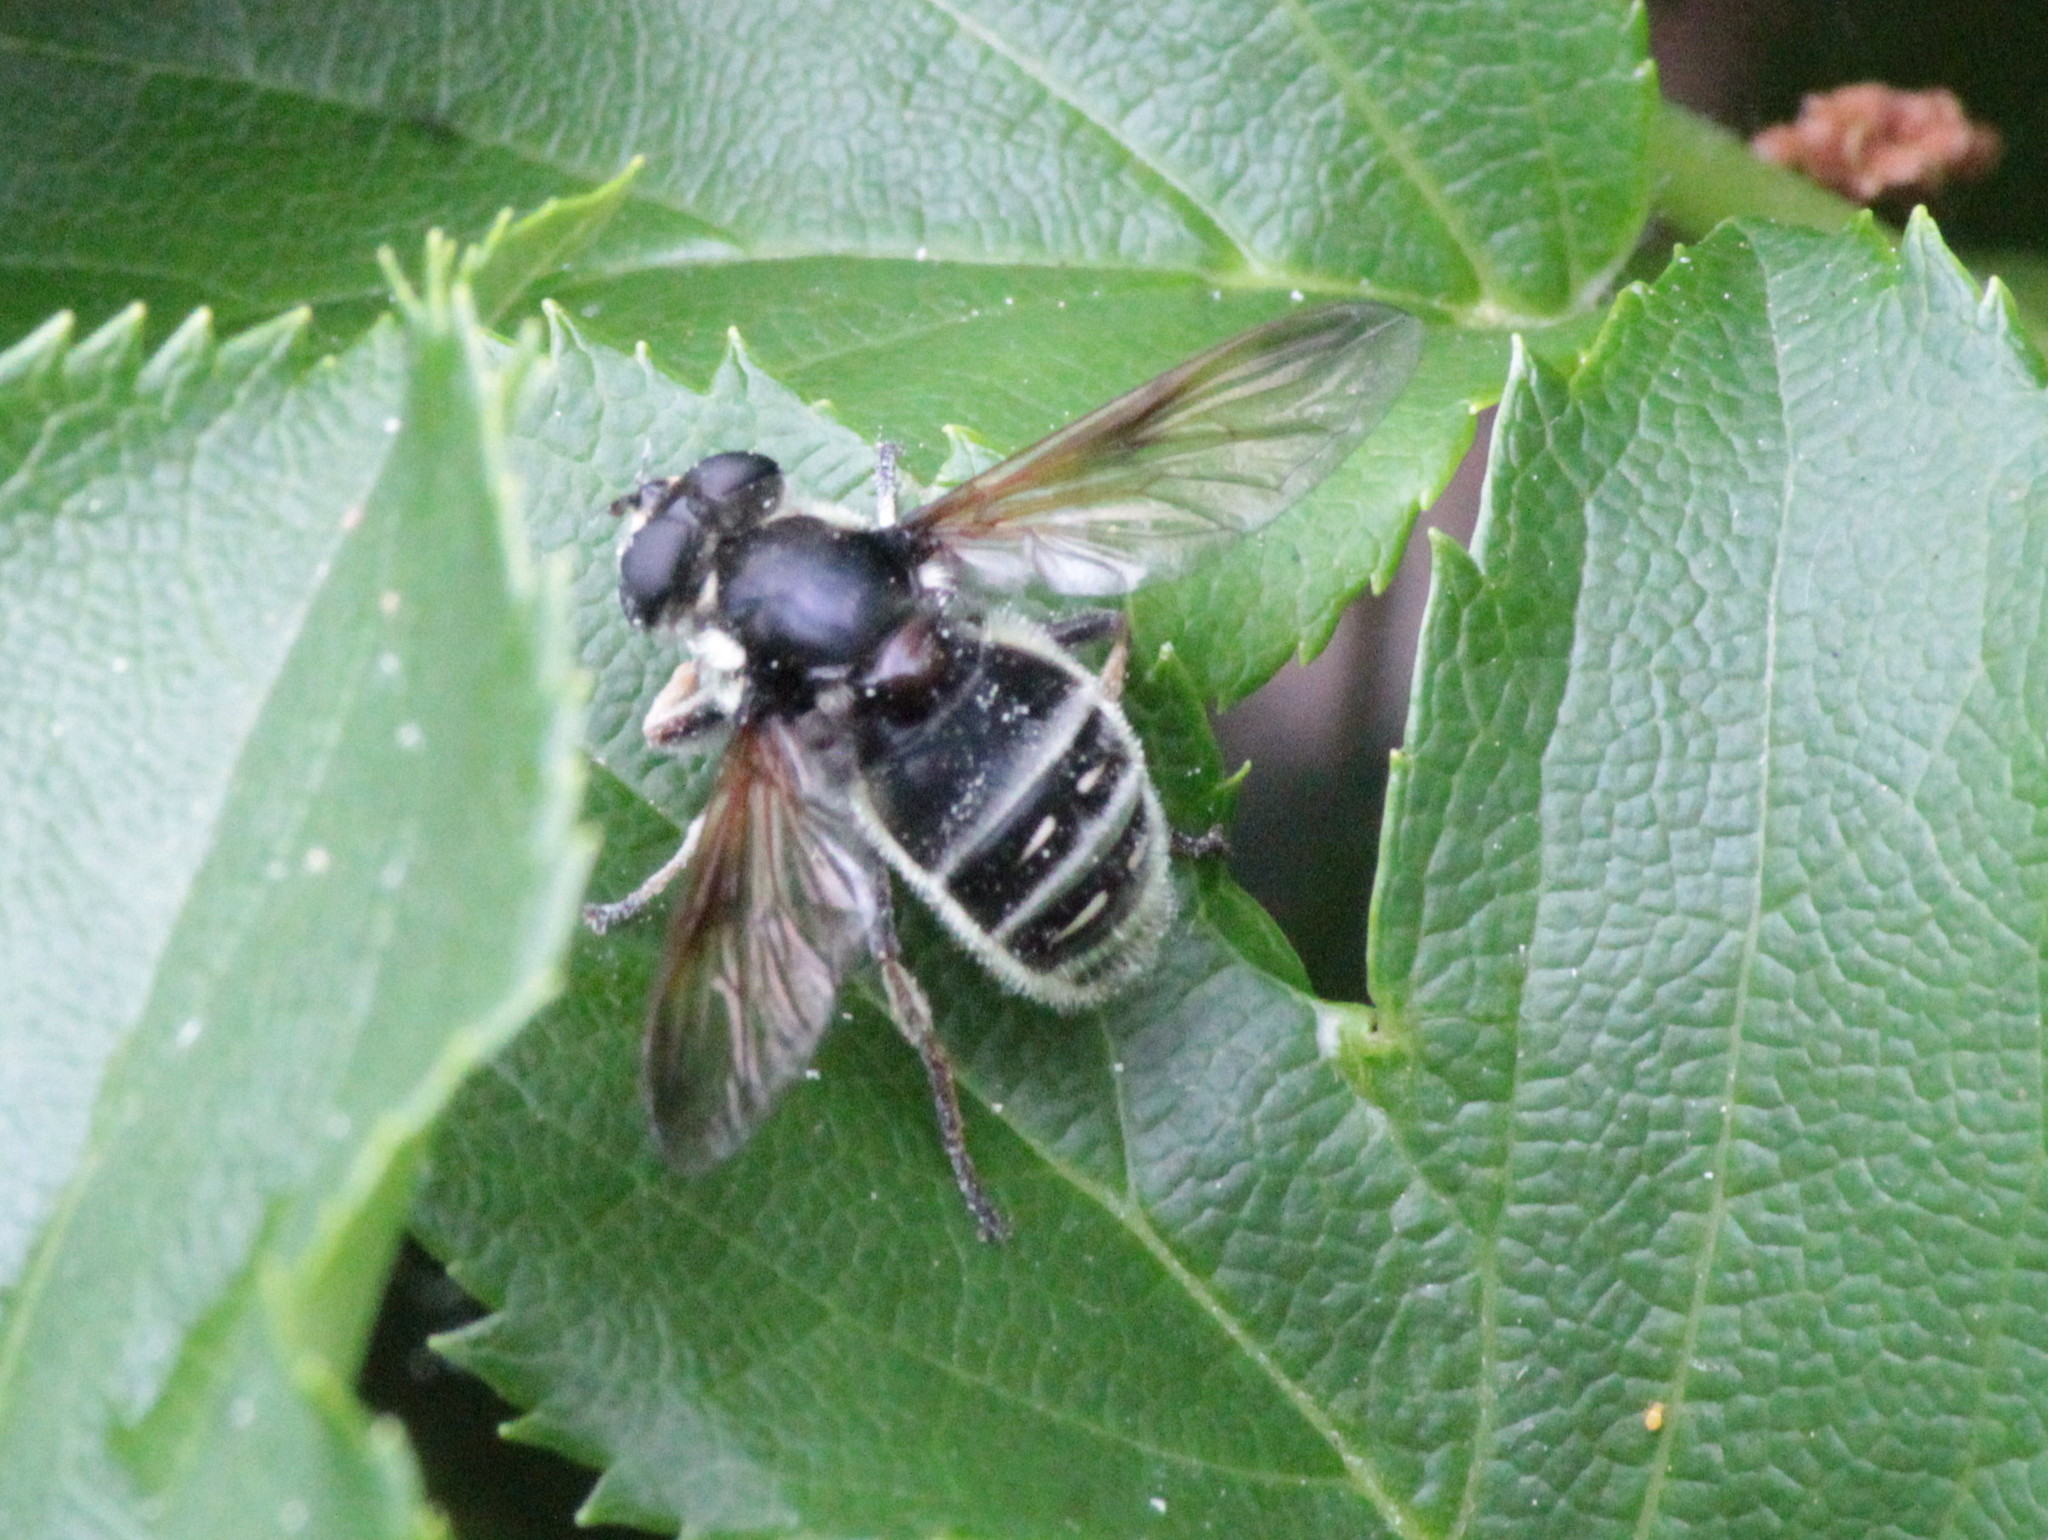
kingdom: Animalia
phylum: Arthropoda
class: Insecta
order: Diptera
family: Syrphidae
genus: Sericomyia
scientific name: Sericomyia militaris
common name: Narrow-banded pond fly
